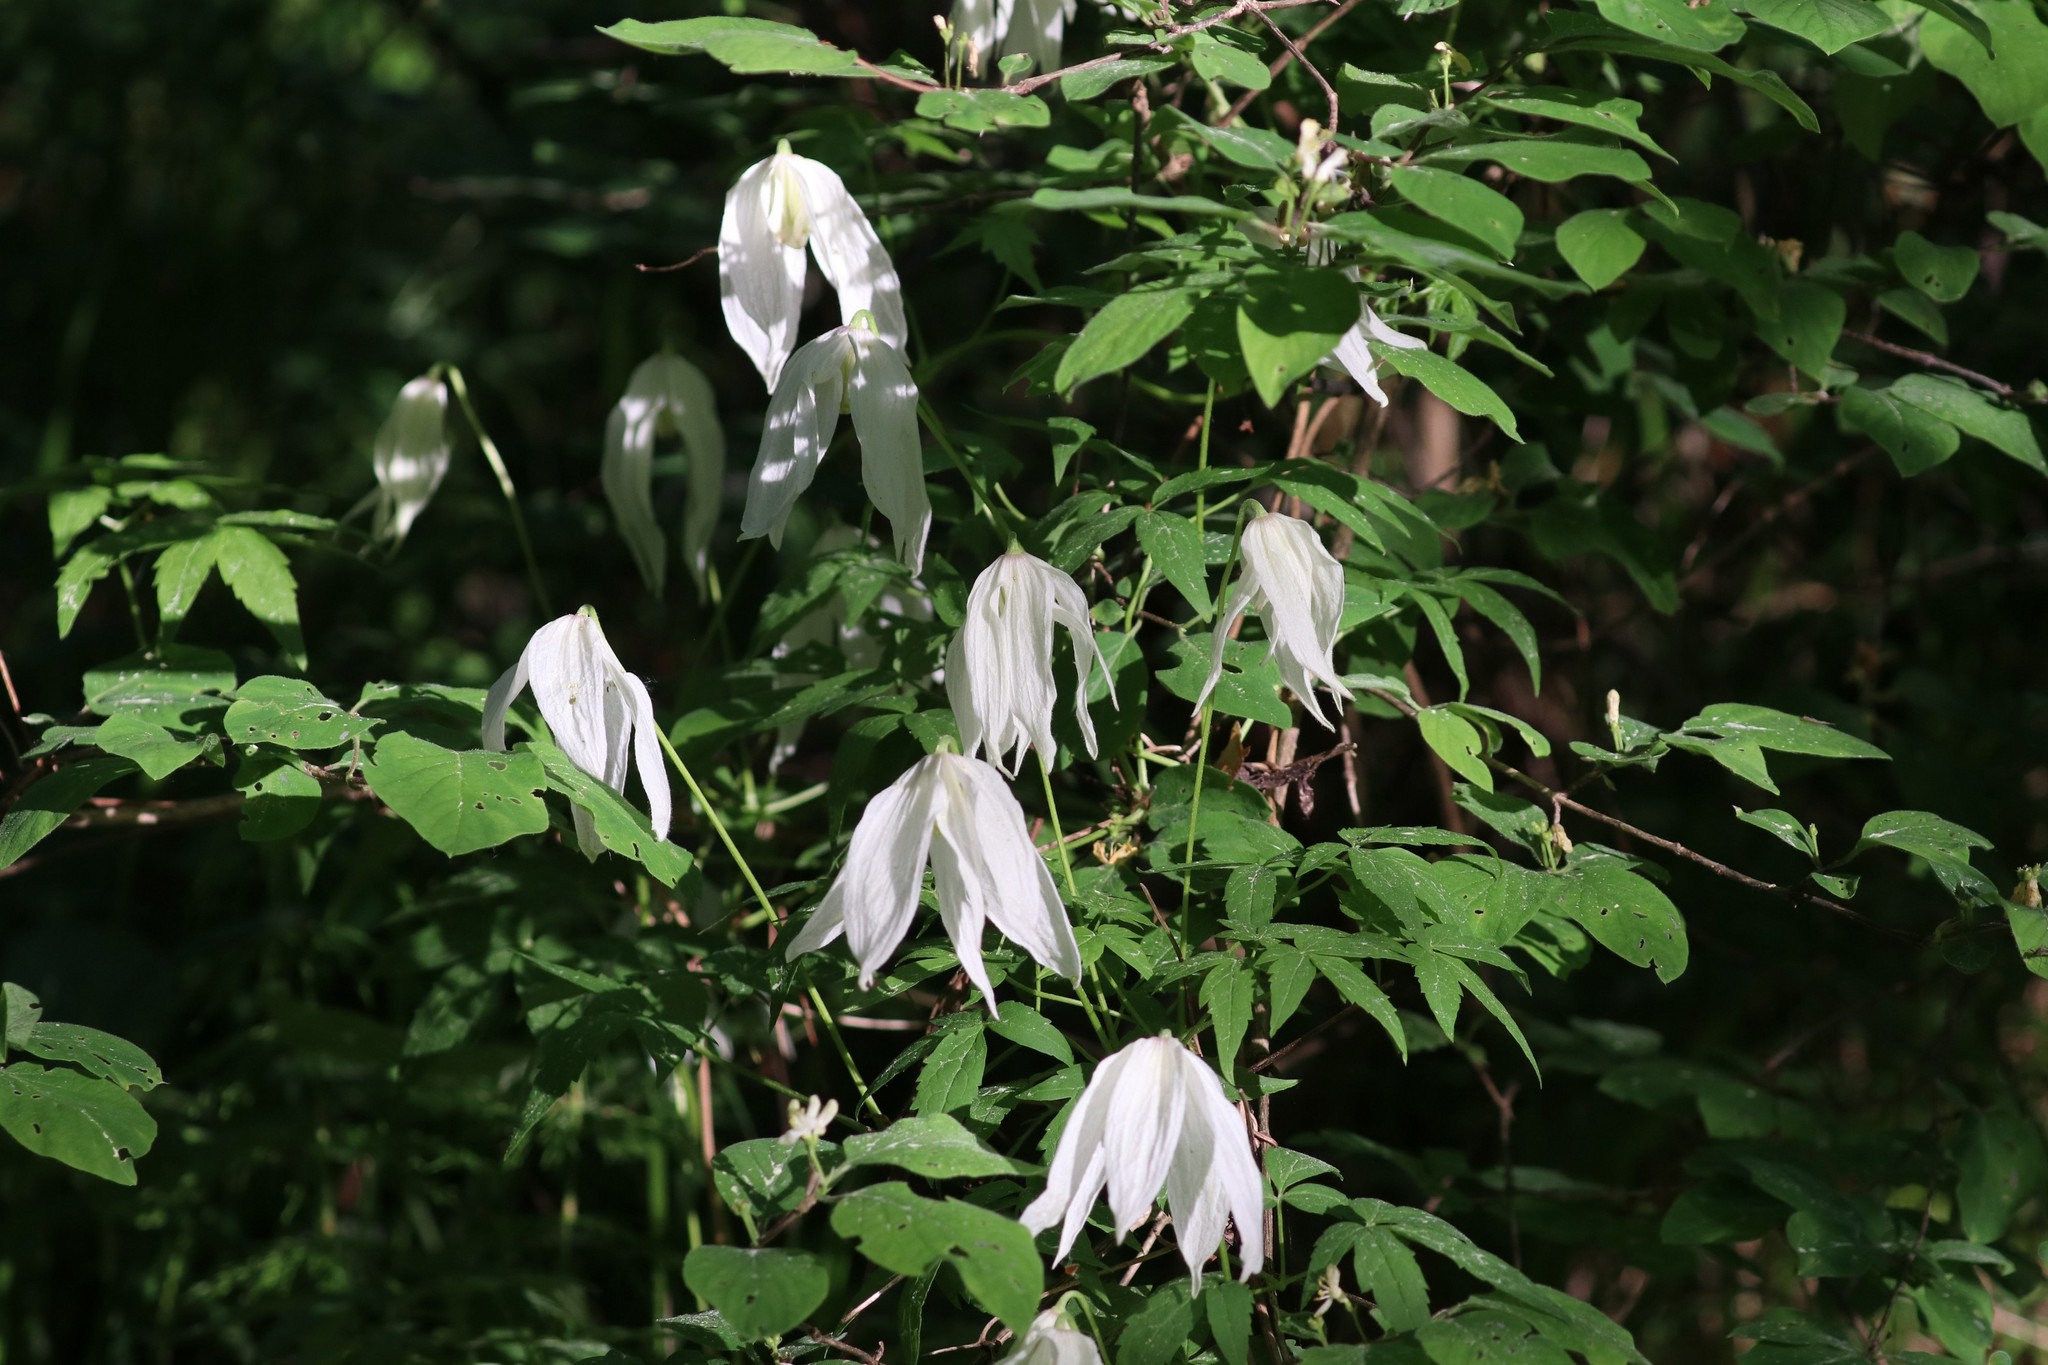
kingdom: Plantae
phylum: Tracheophyta
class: Magnoliopsida
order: Ranunculales
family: Ranunculaceae
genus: Clematis
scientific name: Clematis sibirica
